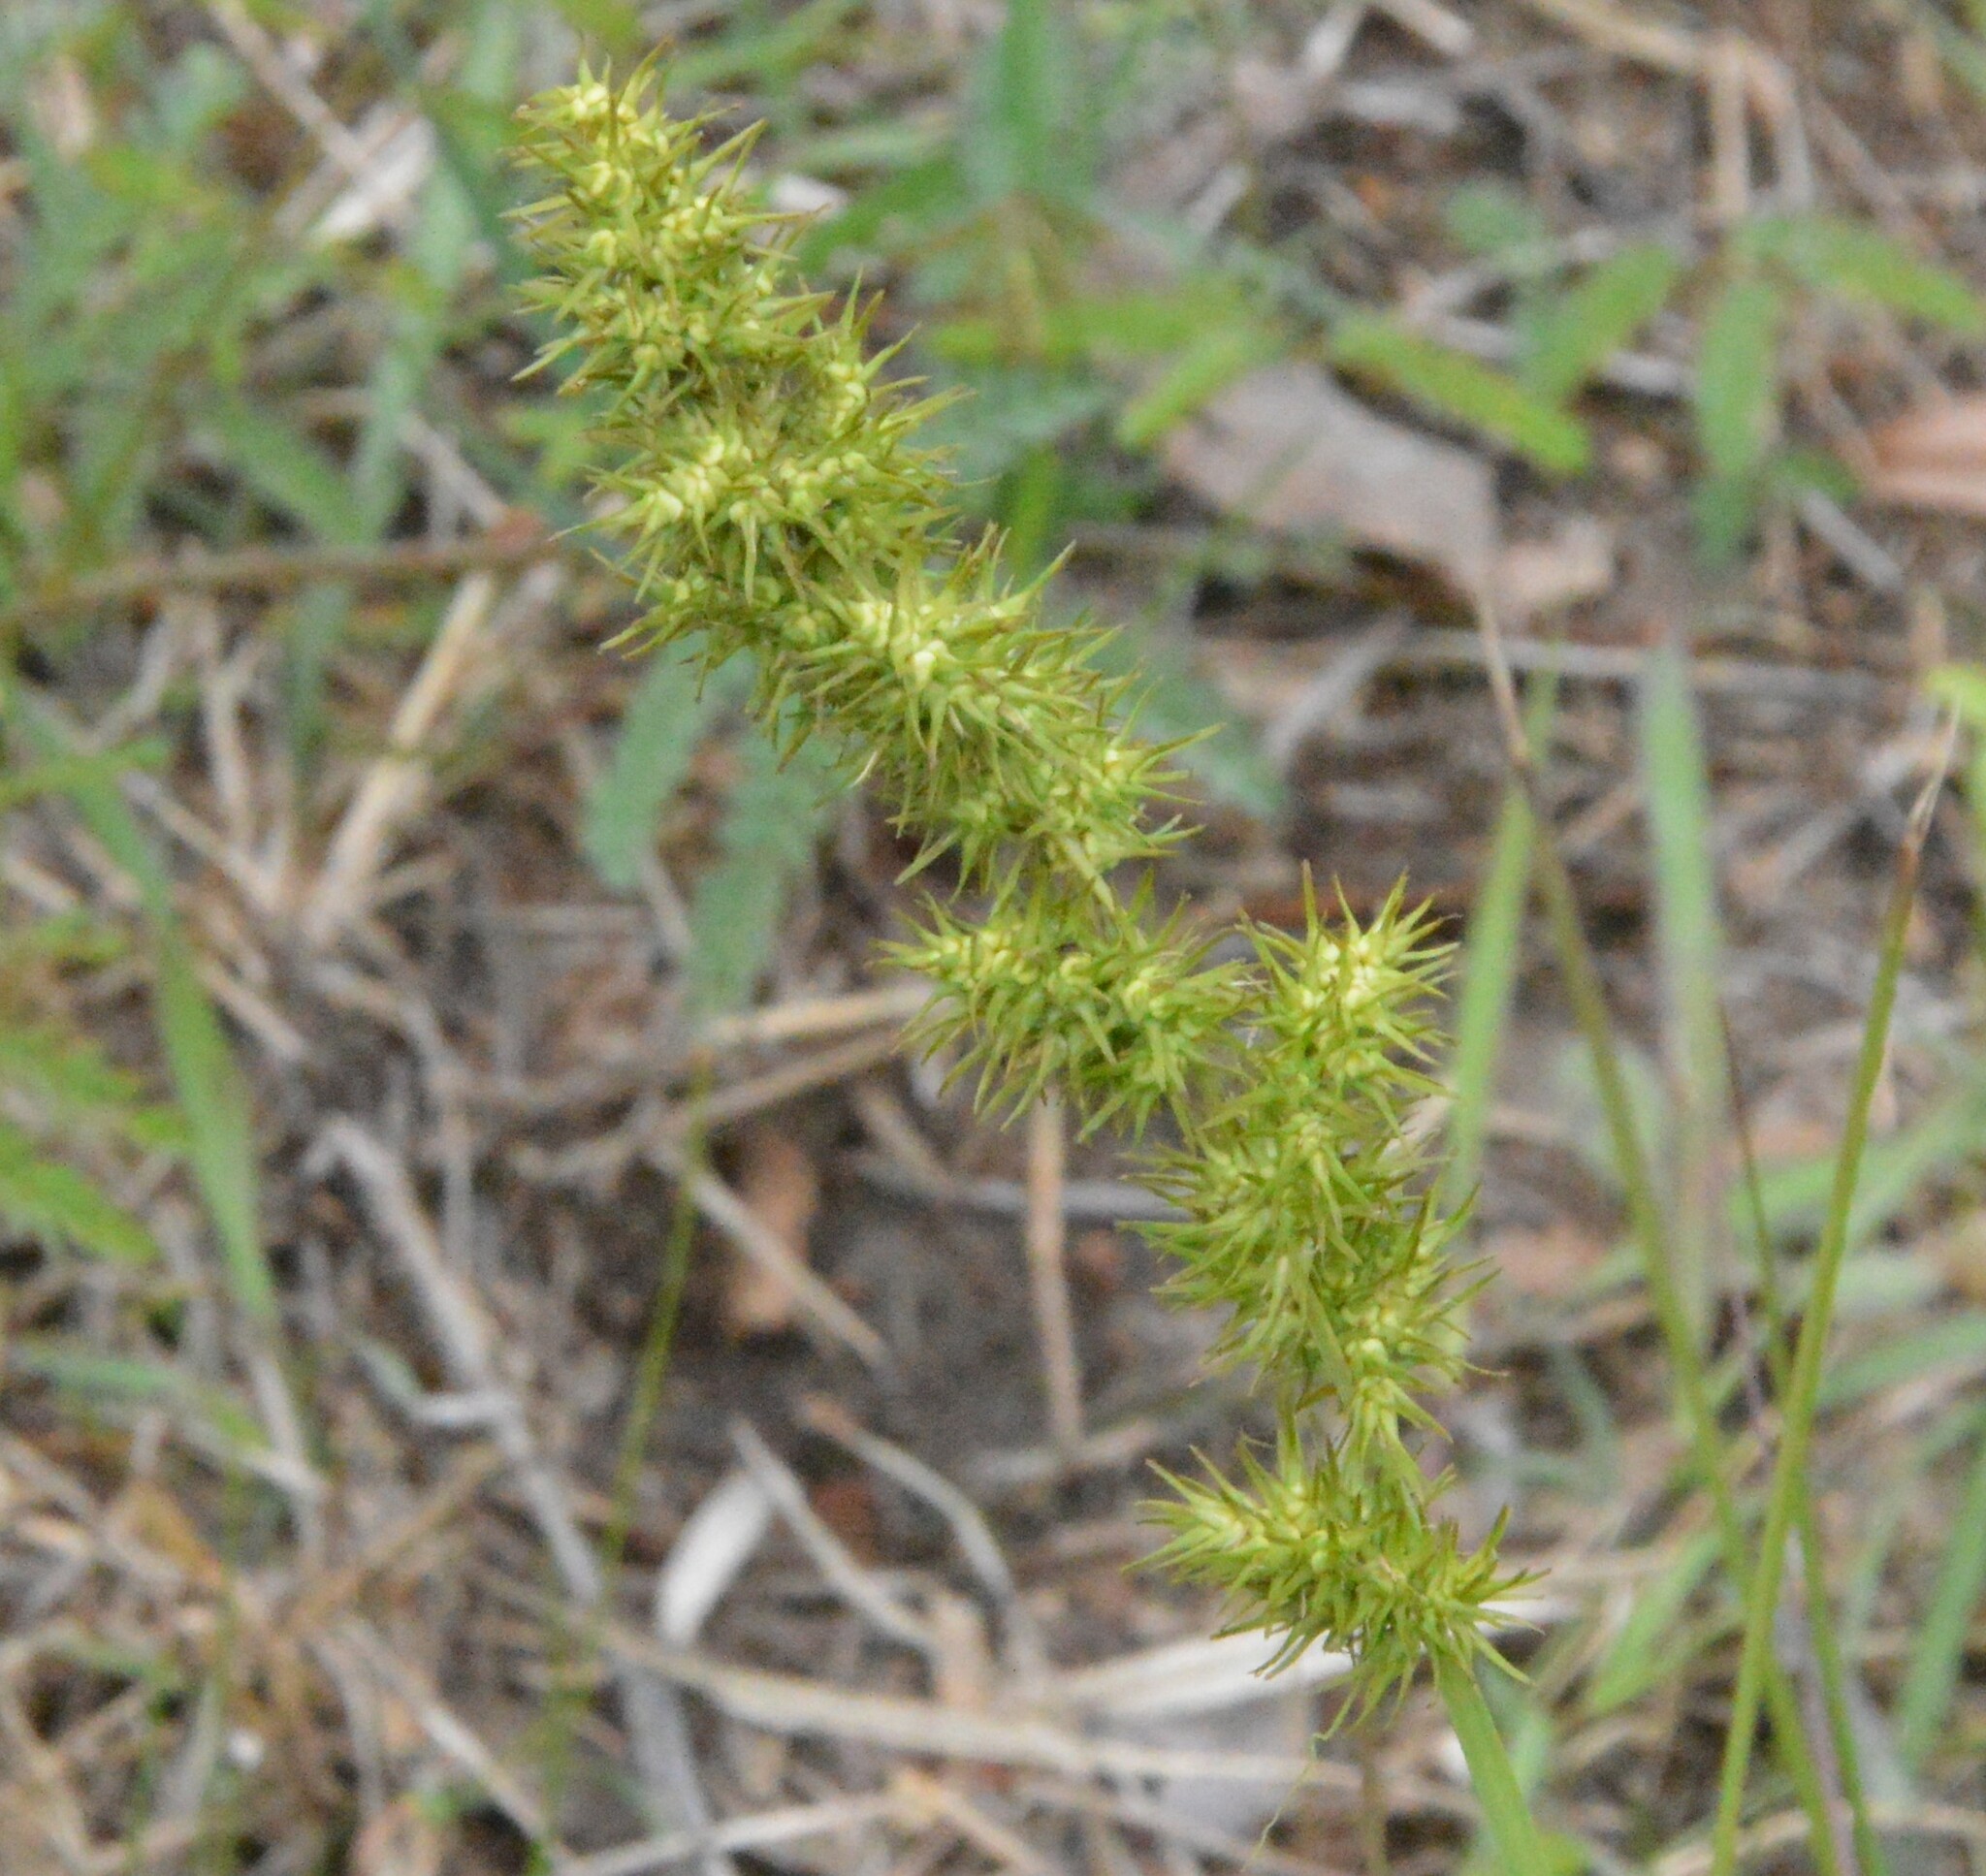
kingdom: Plantae
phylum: Tracheophyta
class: Liliopsida
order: Poales
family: Cyperaceae
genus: Carex
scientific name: Carex crus-corvi
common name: Crow-spur sedge
